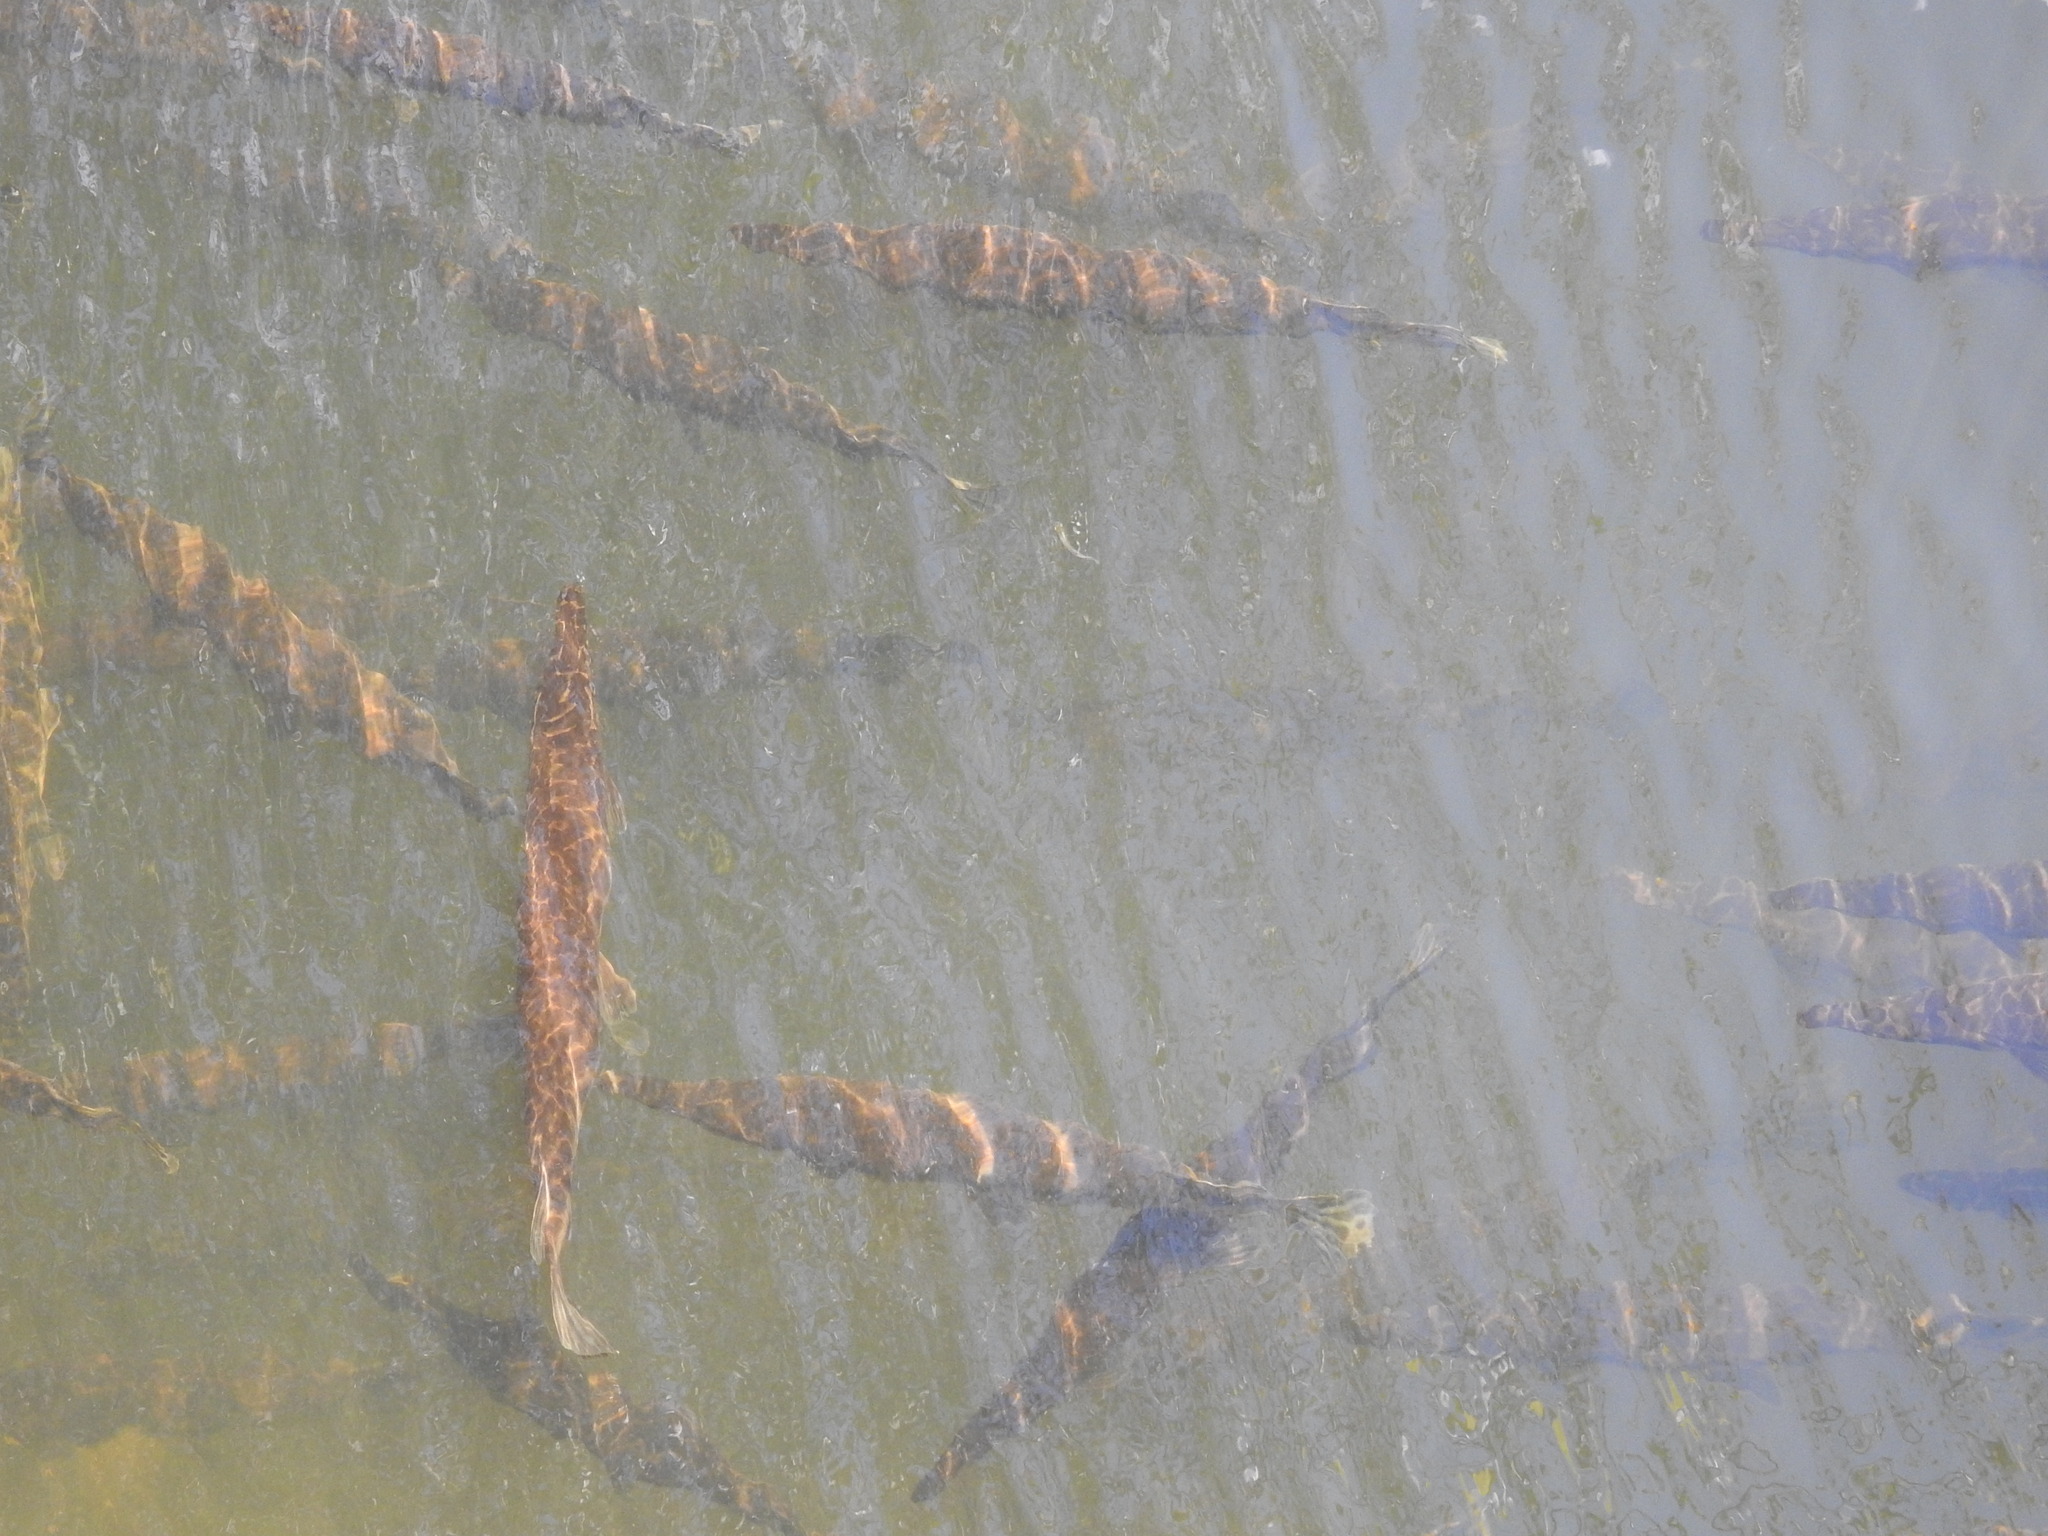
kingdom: Animalia
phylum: Chordata
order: Lepisosteiformes
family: Lepisosteidae
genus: Lepisosteus
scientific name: Lepisosteus platyrhincus
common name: Florida gar
